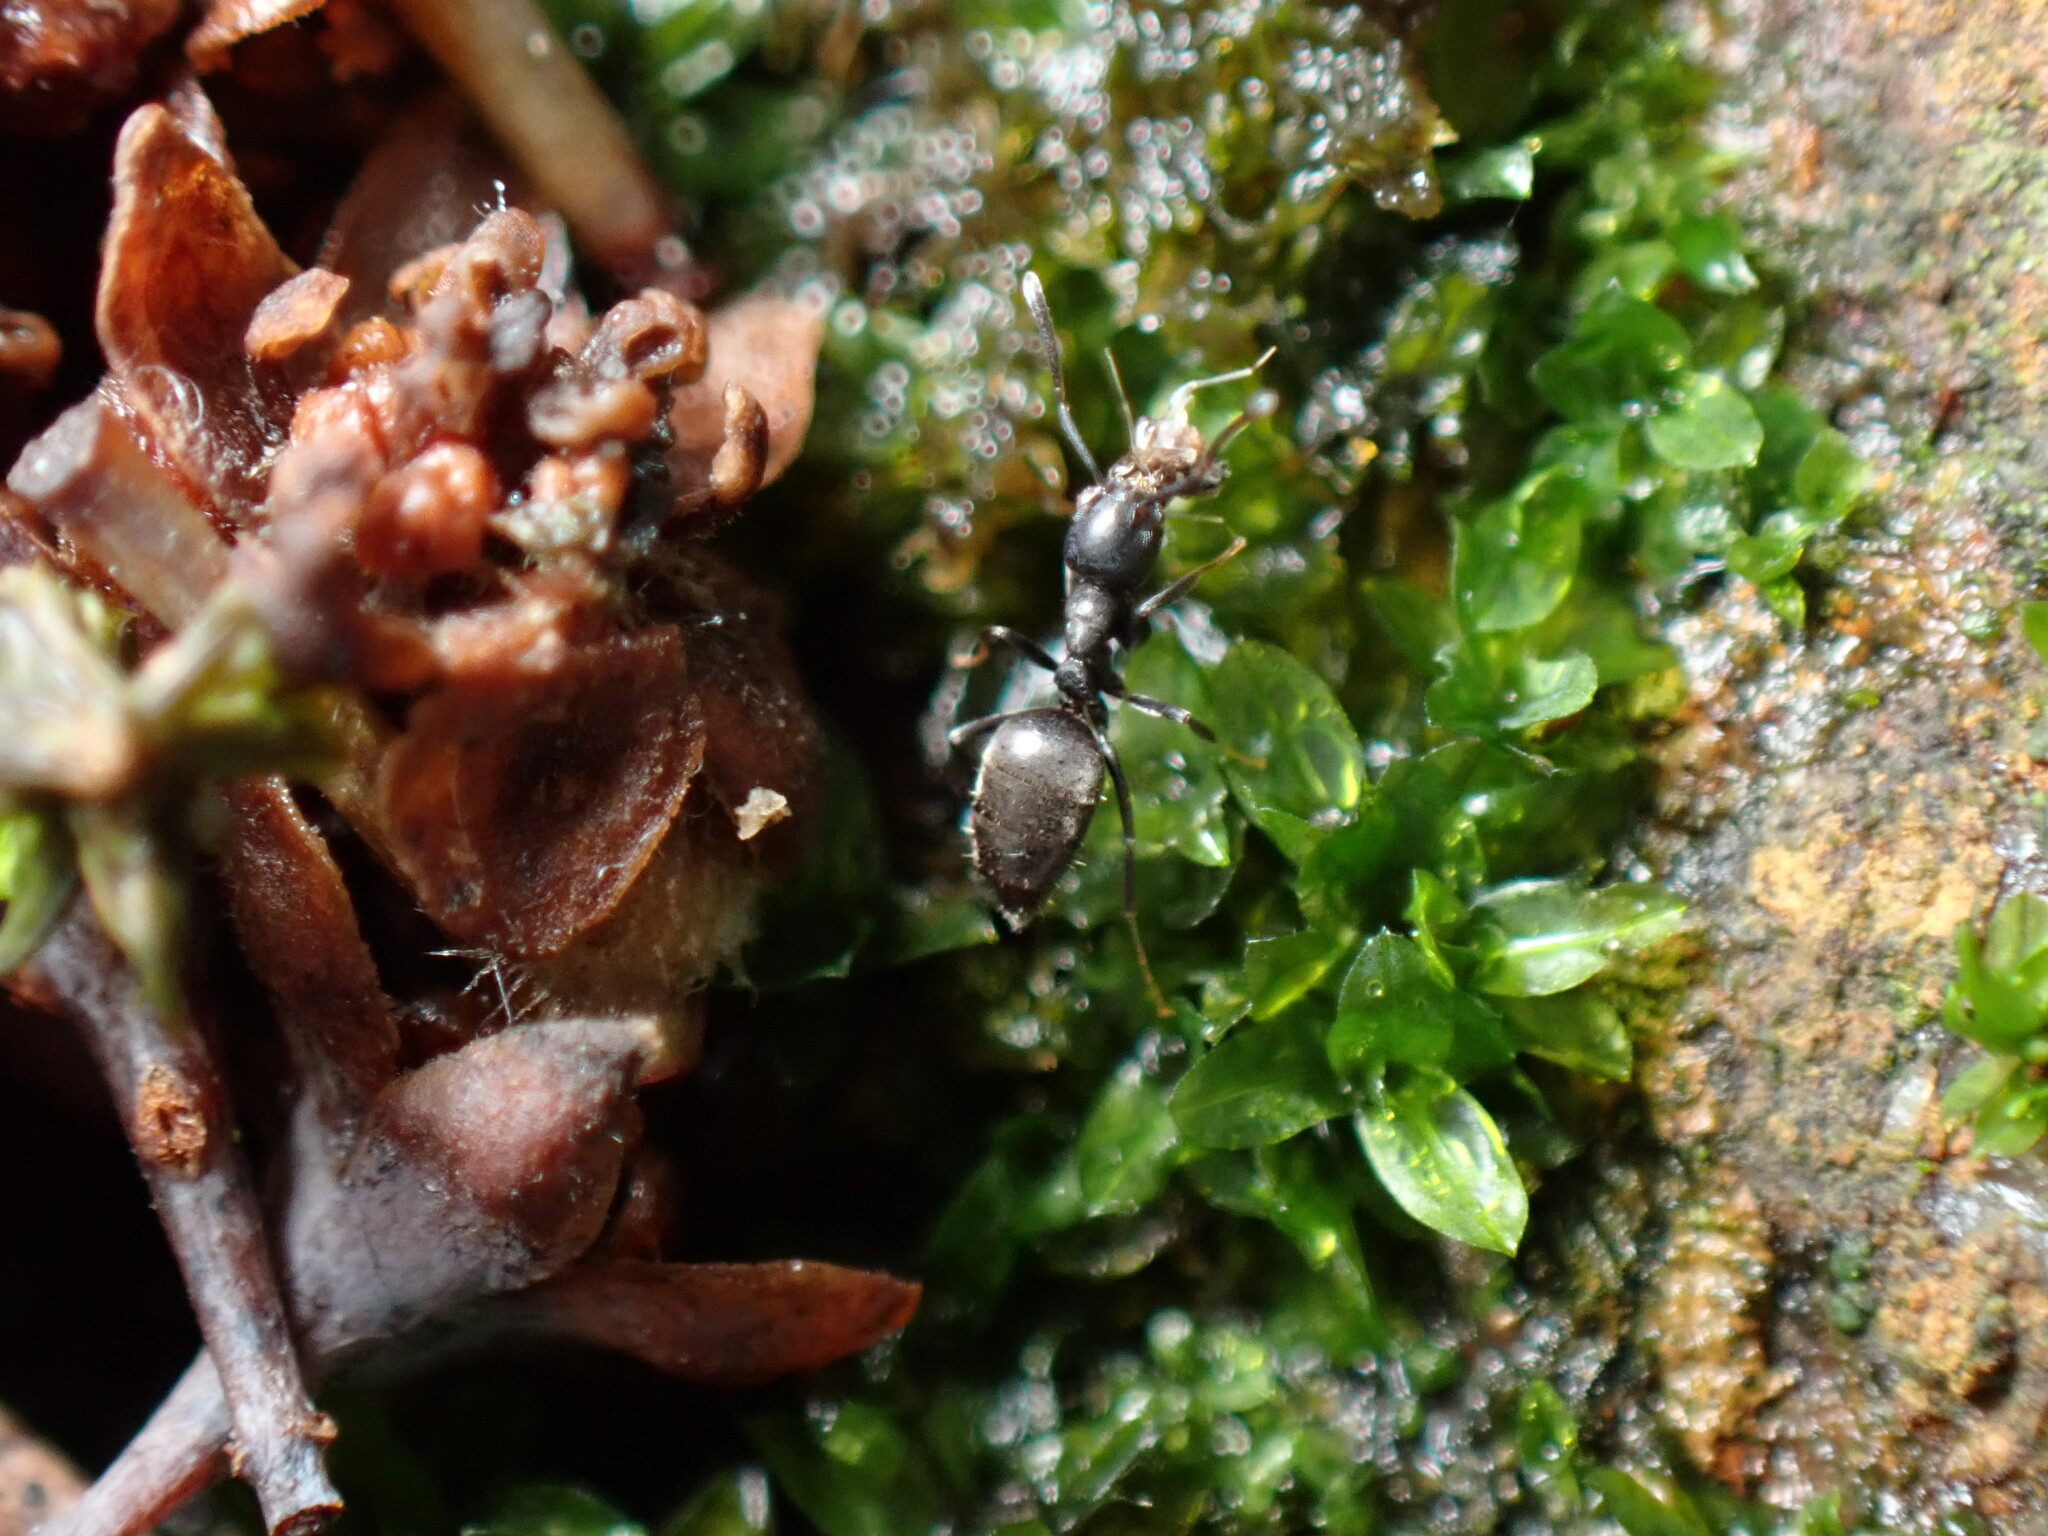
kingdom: Animalia
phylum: Arthropoda
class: Insecta
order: Hymenoptera
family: Formicidae
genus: Technomyrmex
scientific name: Technomyrmex brunneus
